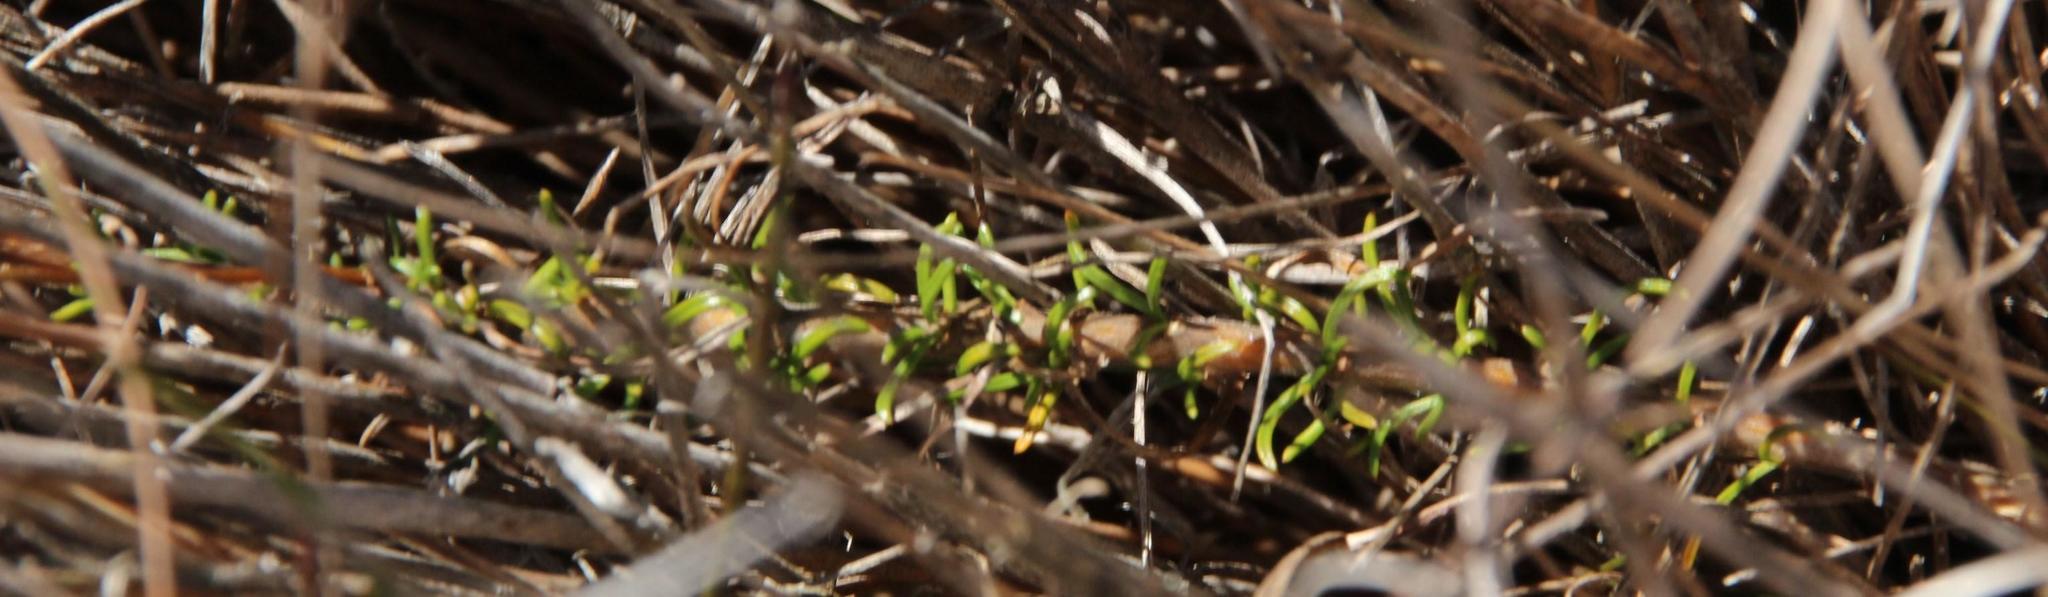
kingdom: Plantae
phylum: Tracheophyta
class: Magnoliopsida
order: Asterales
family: Campanulaceae
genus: Prismatocarpus
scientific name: Prismatocarpus fruticosus
